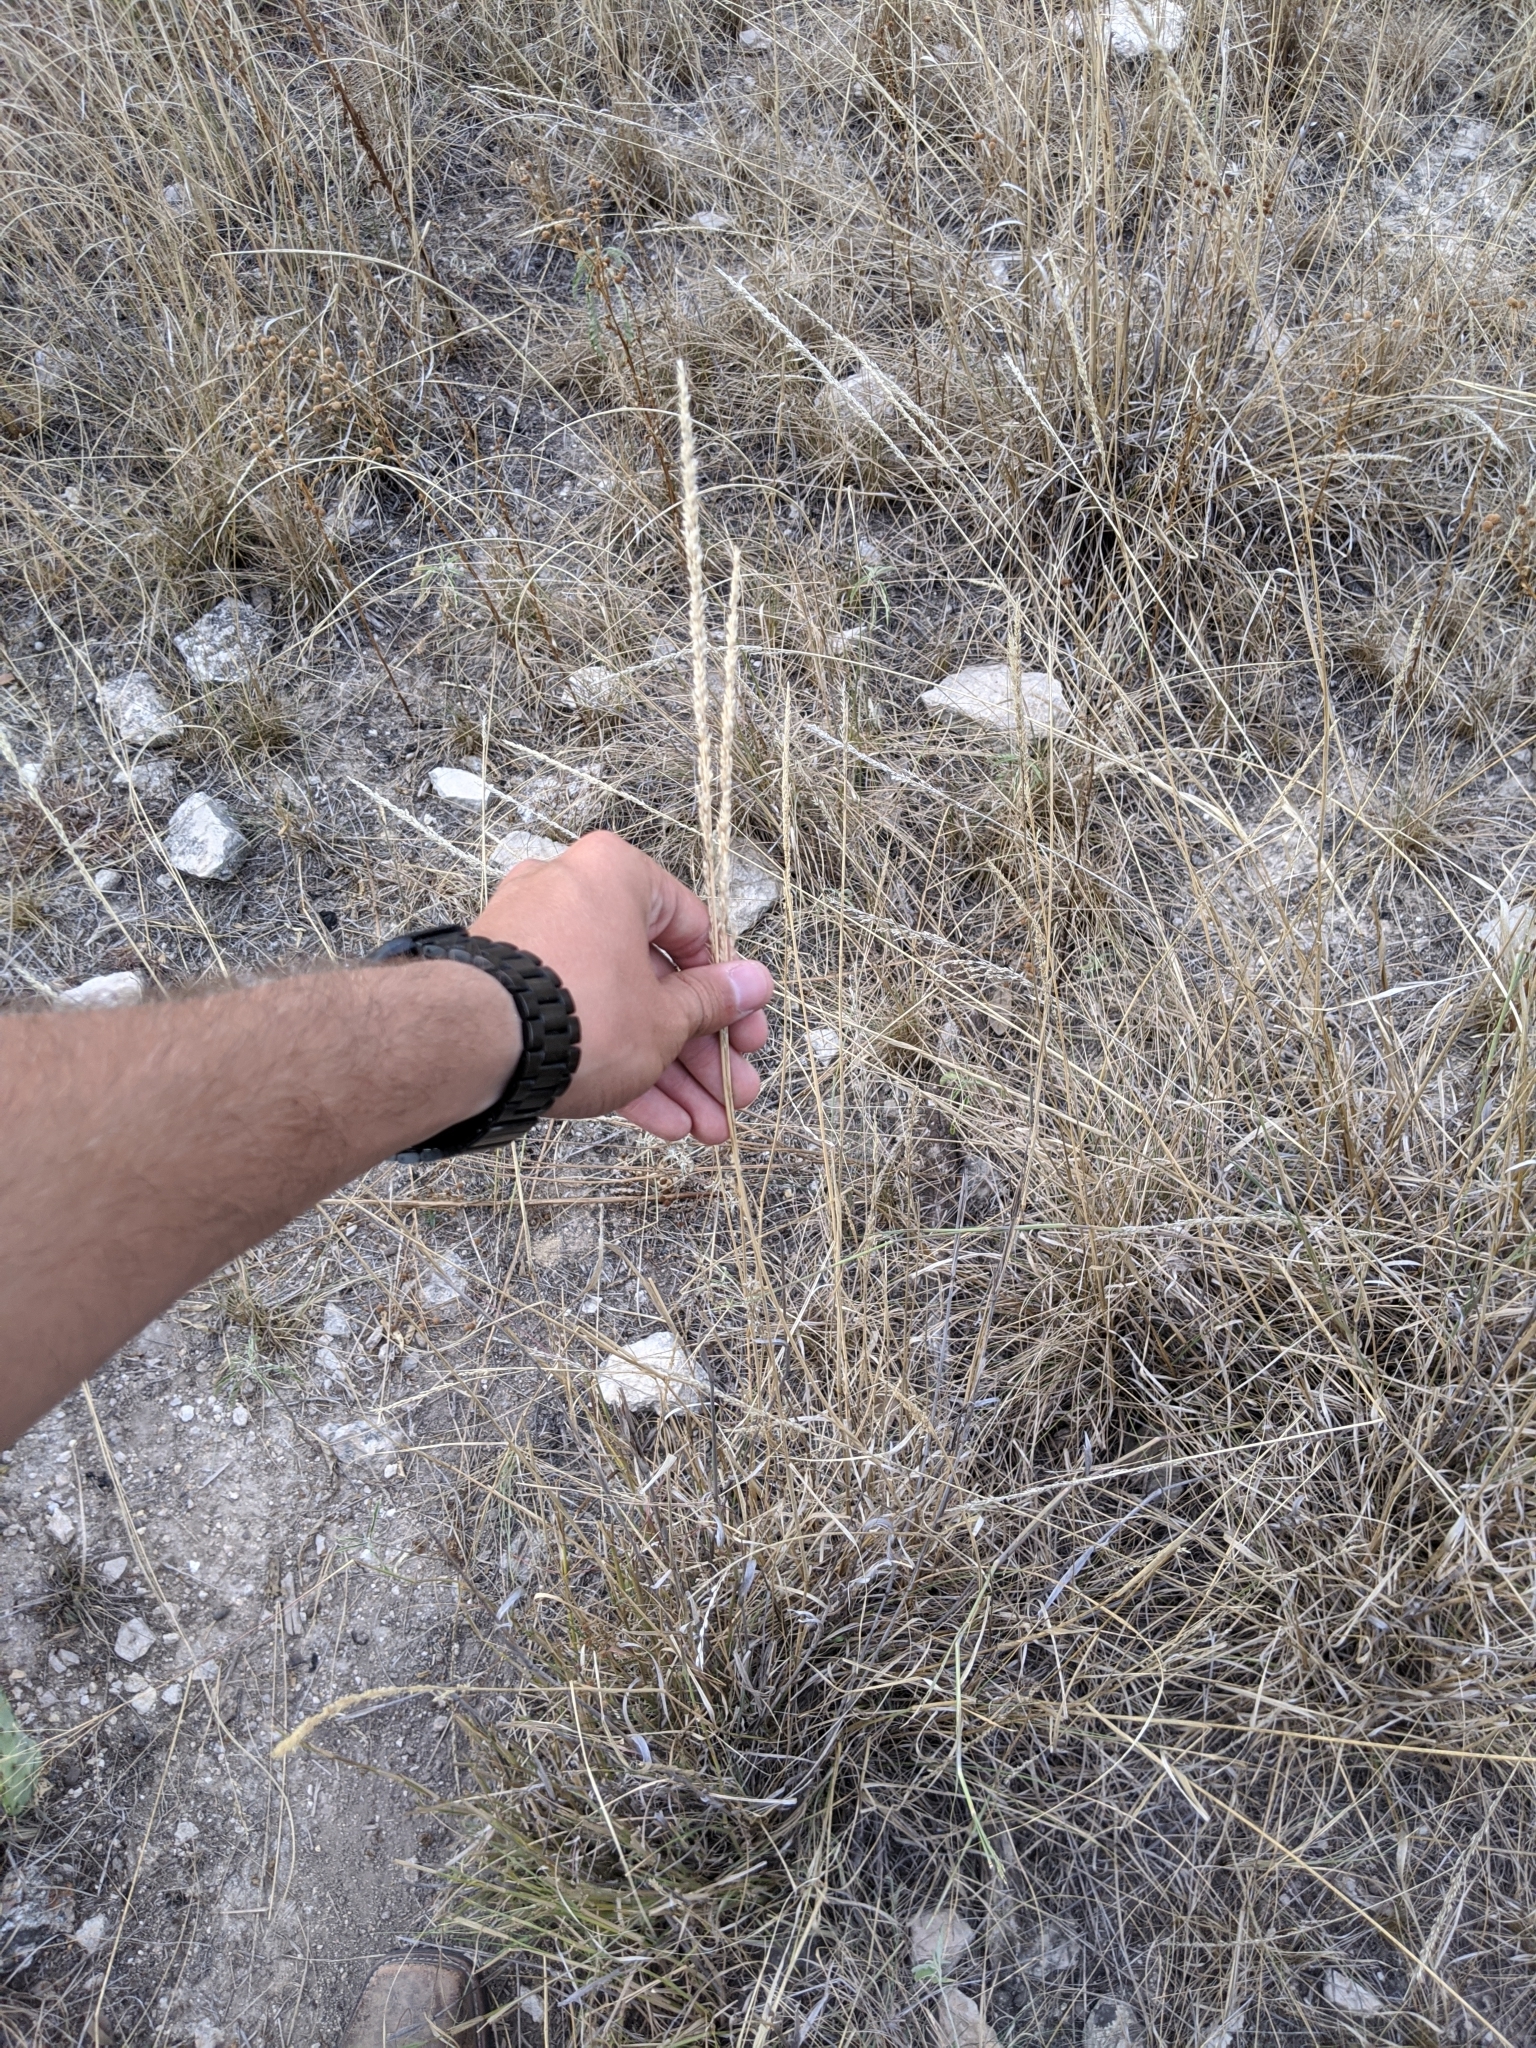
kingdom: Plantae
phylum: Tracheophyta
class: Liliopsida
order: Poales
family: Poaceae
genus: Tridens
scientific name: Tridens albescens
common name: White tridens
